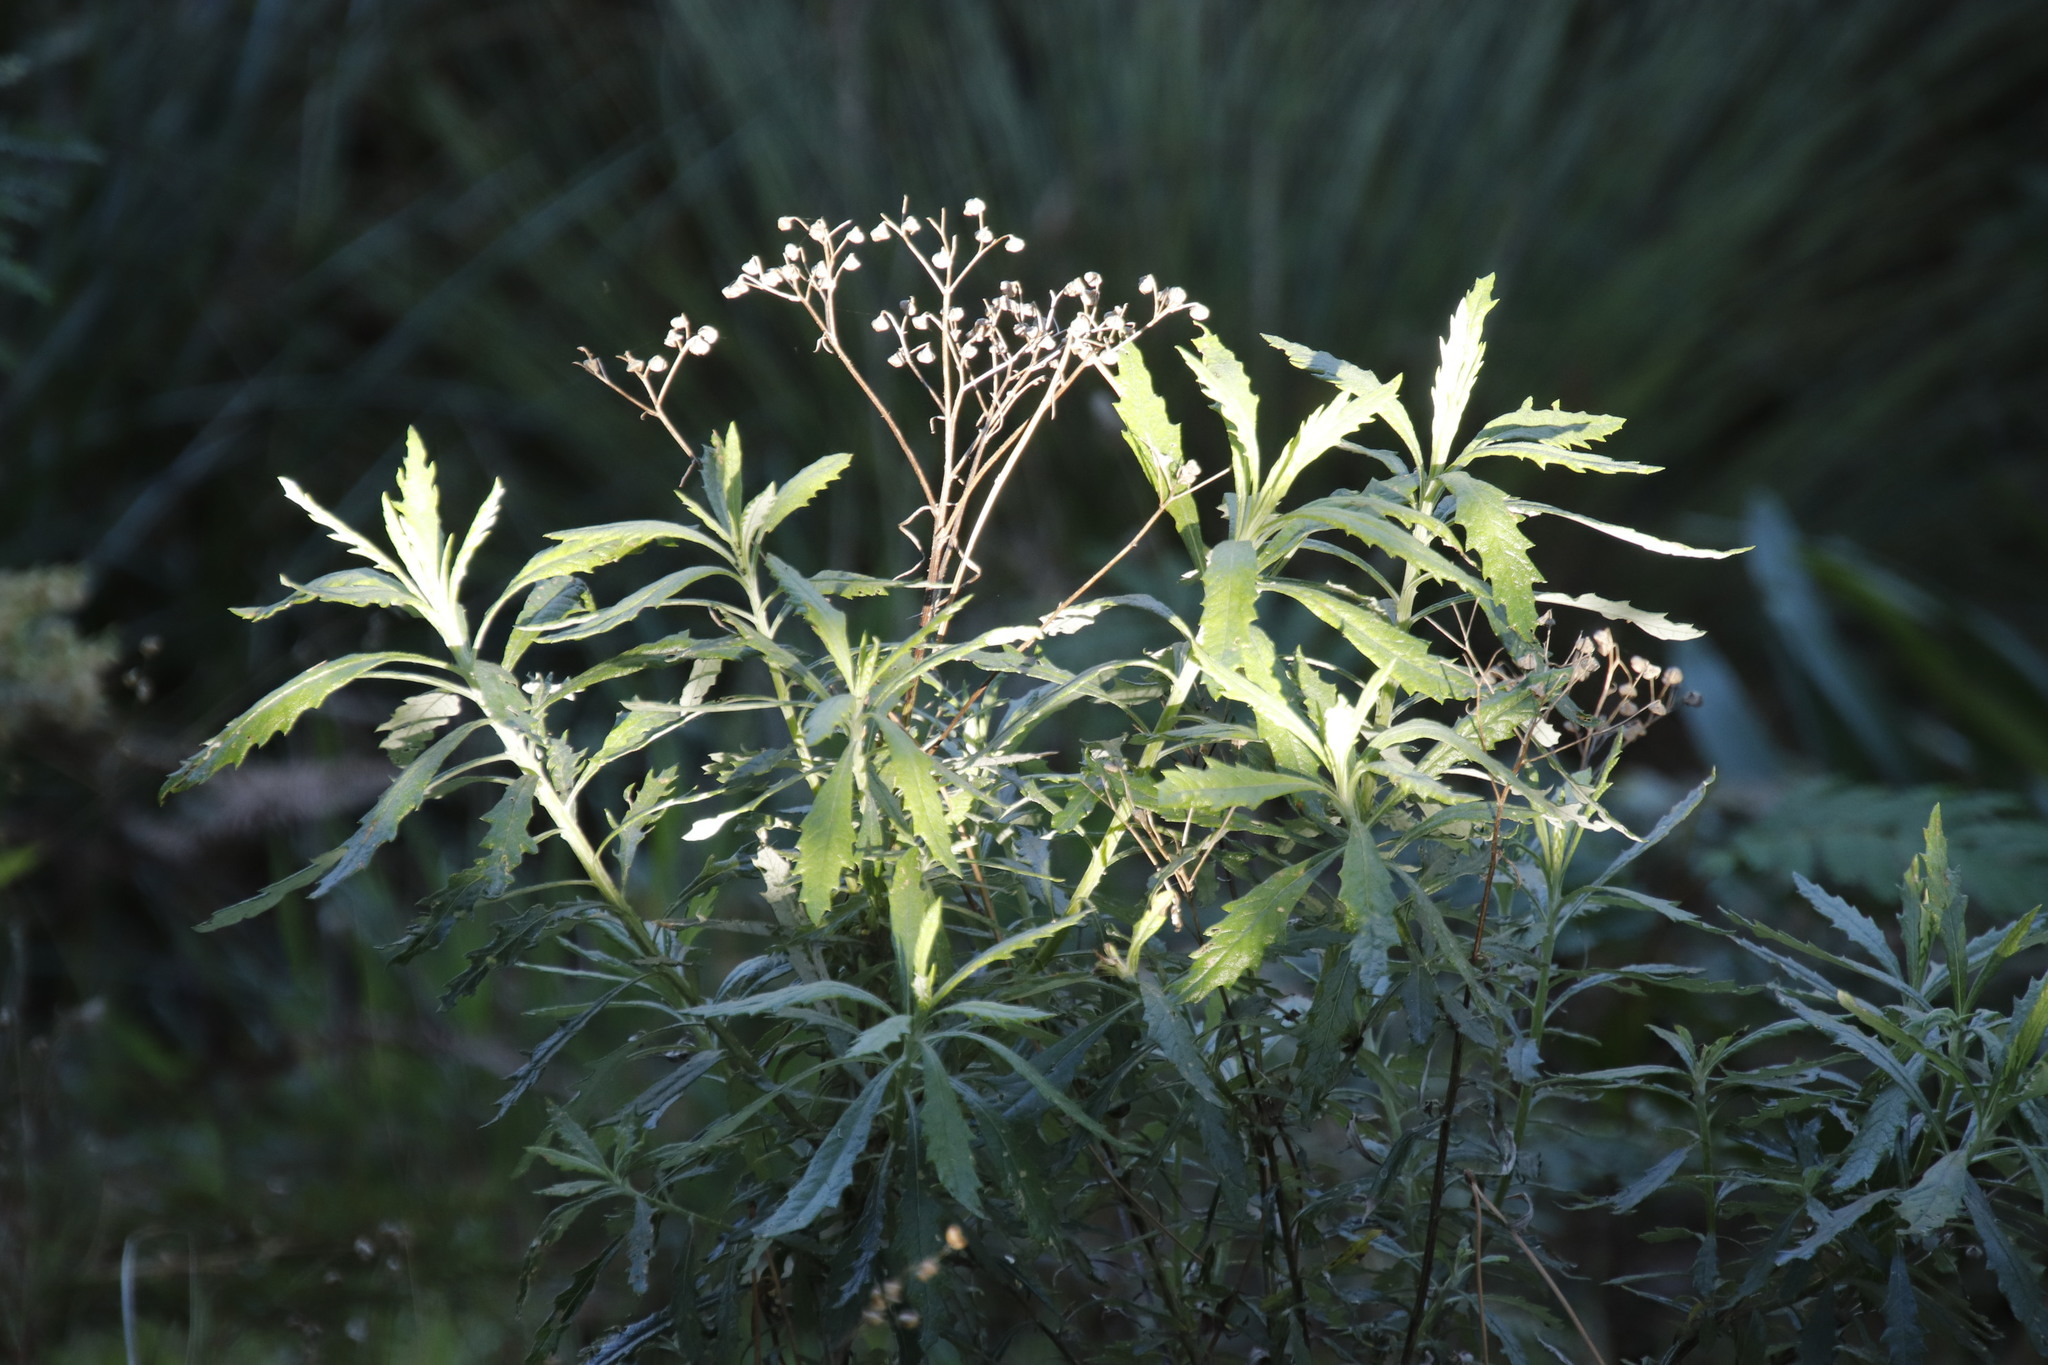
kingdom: Plantae
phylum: Tracheophyta
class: Magnoliopsida
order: Asterales
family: Asteraceae
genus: Senecio
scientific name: Senecio pterophorus
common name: Shoddy ragwort
